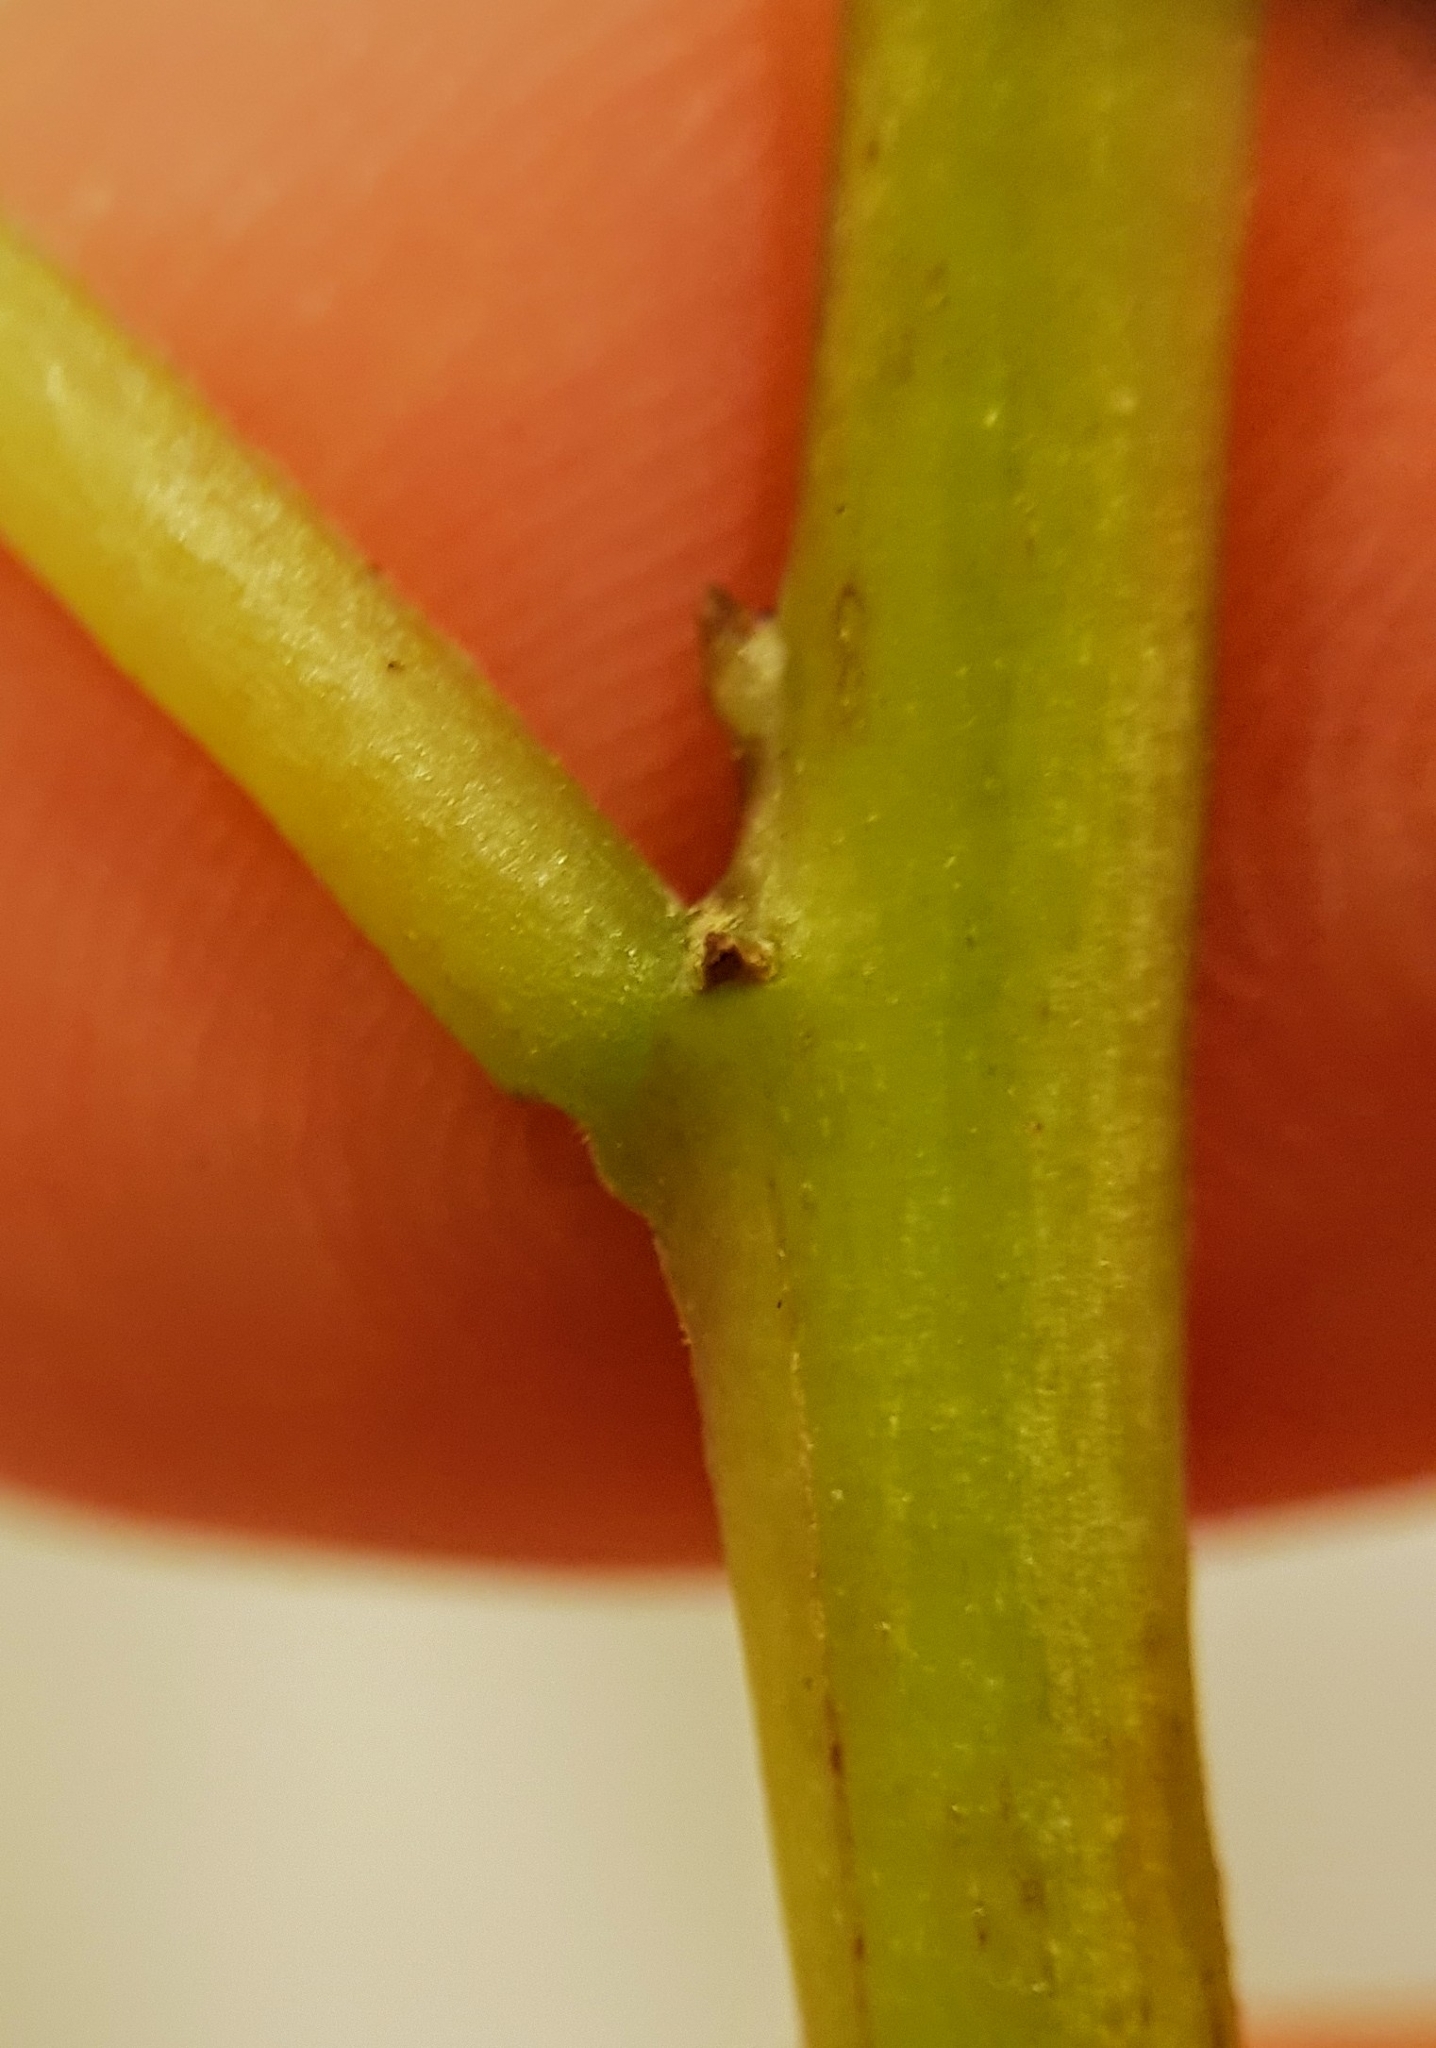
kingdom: Plantae
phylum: Tracheophyta
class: Magnoliopsida
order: Myrtales
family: Onagraceae
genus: Fuchsia
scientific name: Fuchsia excorticata
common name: Tree fuchsia
